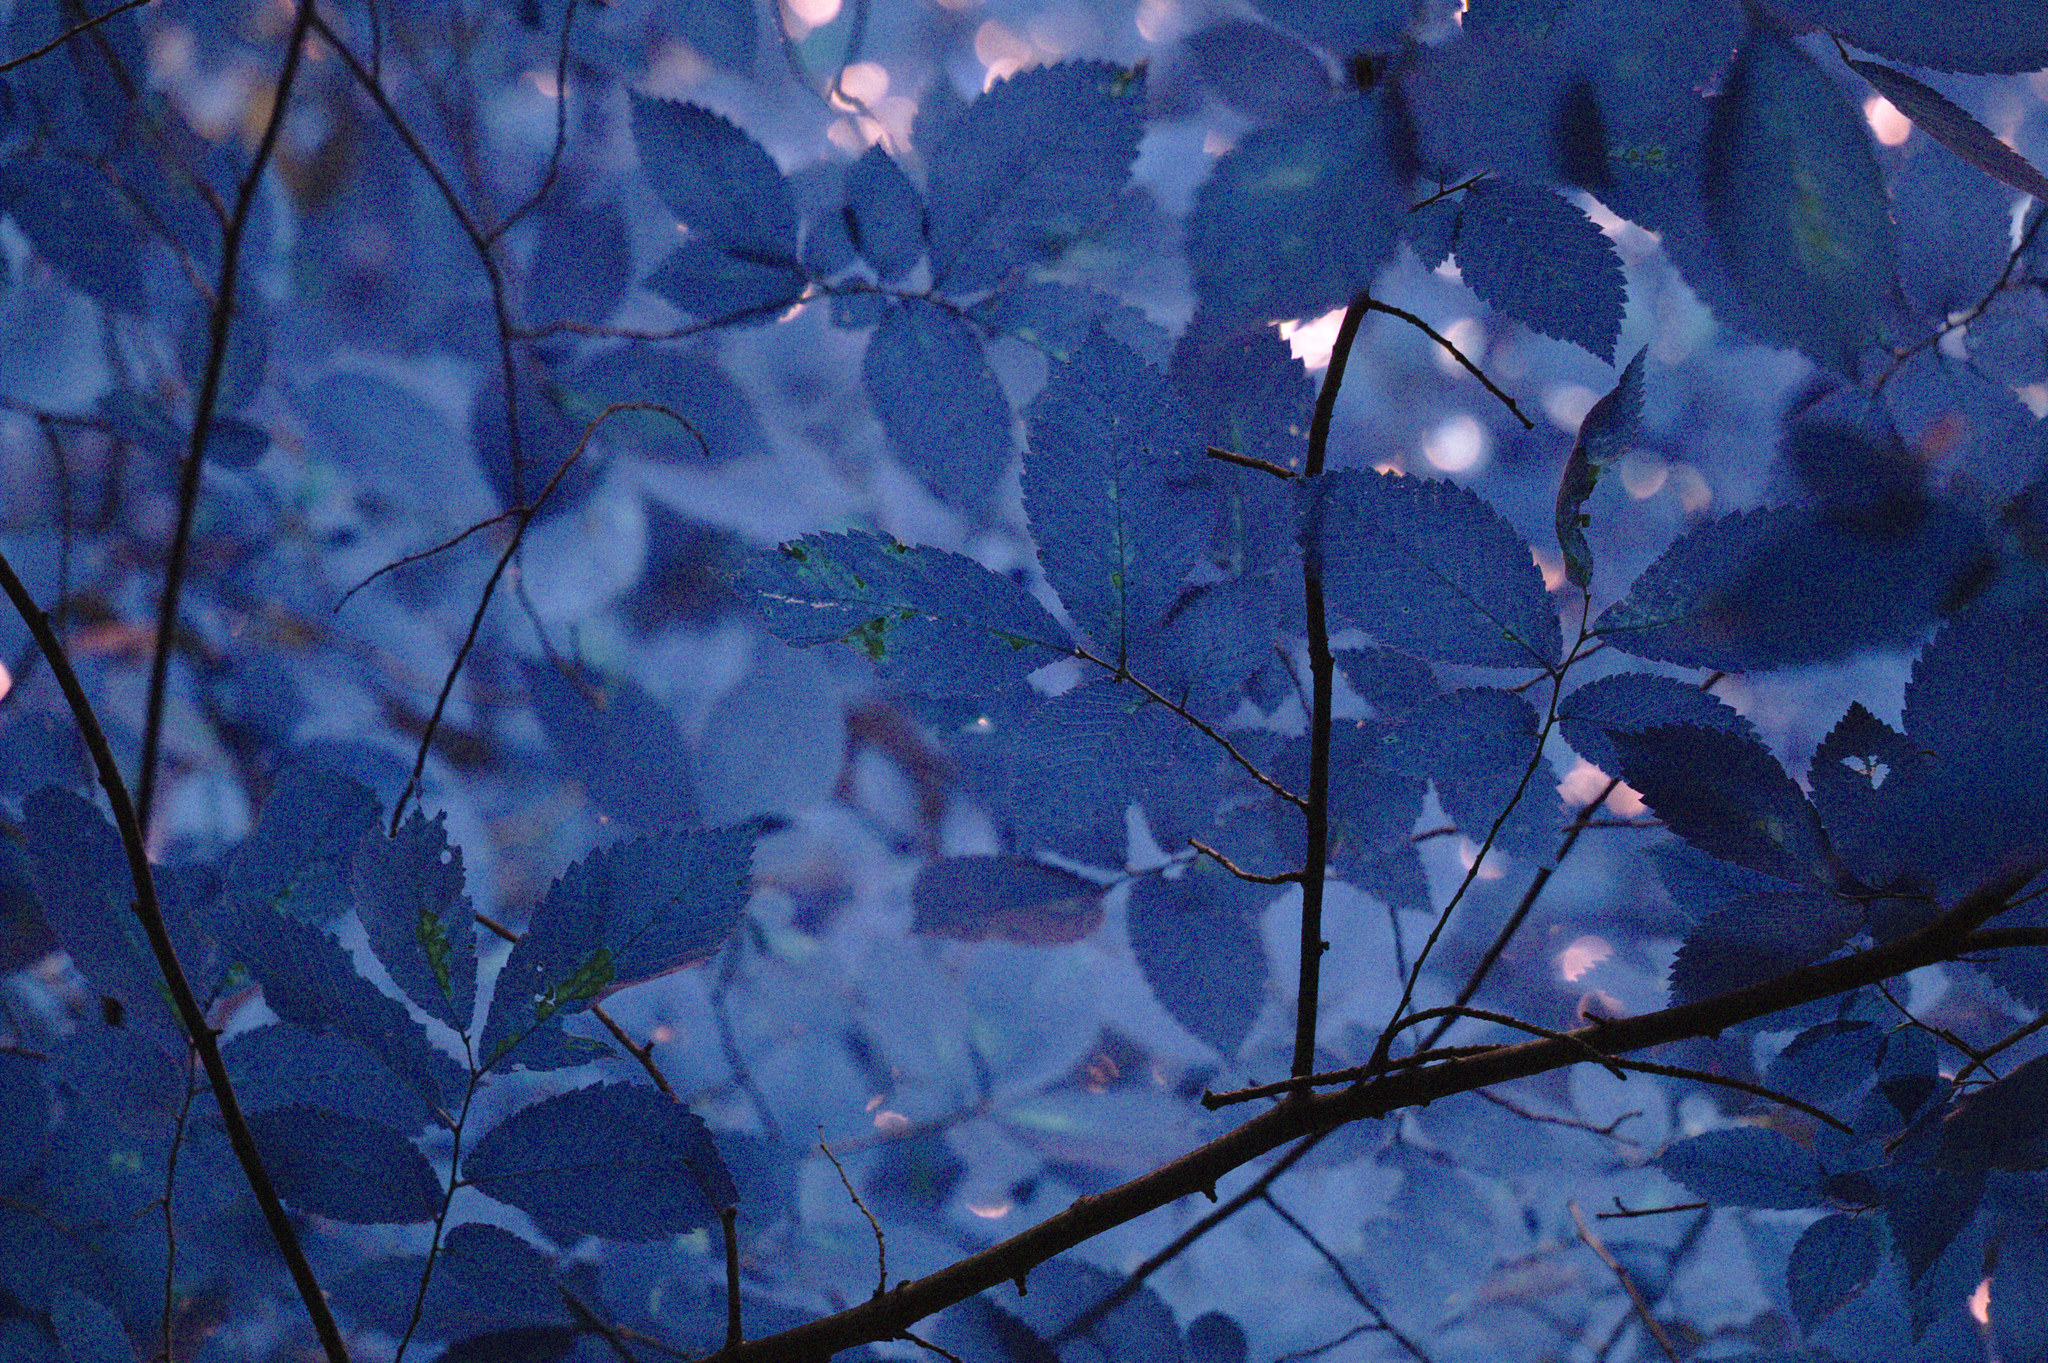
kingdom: Plantae
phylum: Tracheophyta
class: Magnoliopsida
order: Rosales
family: Ulmaceae
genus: Ulmus
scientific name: Ulmus americana
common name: American elm
